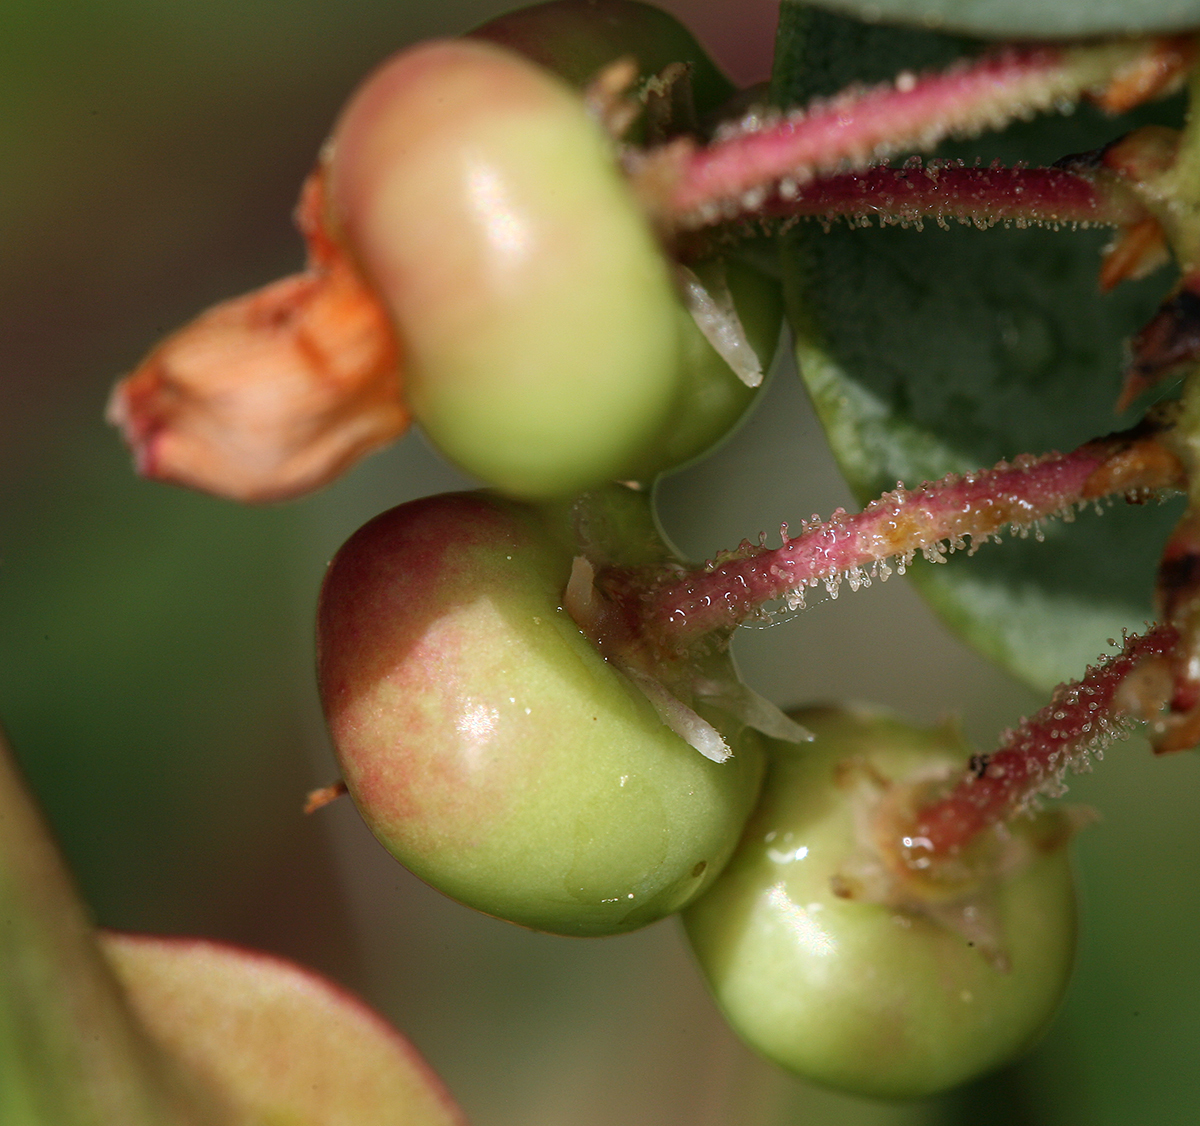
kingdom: Plantae
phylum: Tracheophyta
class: Magnoliopsida
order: Ericales
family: Ericaceae
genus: Arctostaphylos
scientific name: Arctostaphylos viscida
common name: White-leaf manzanita
